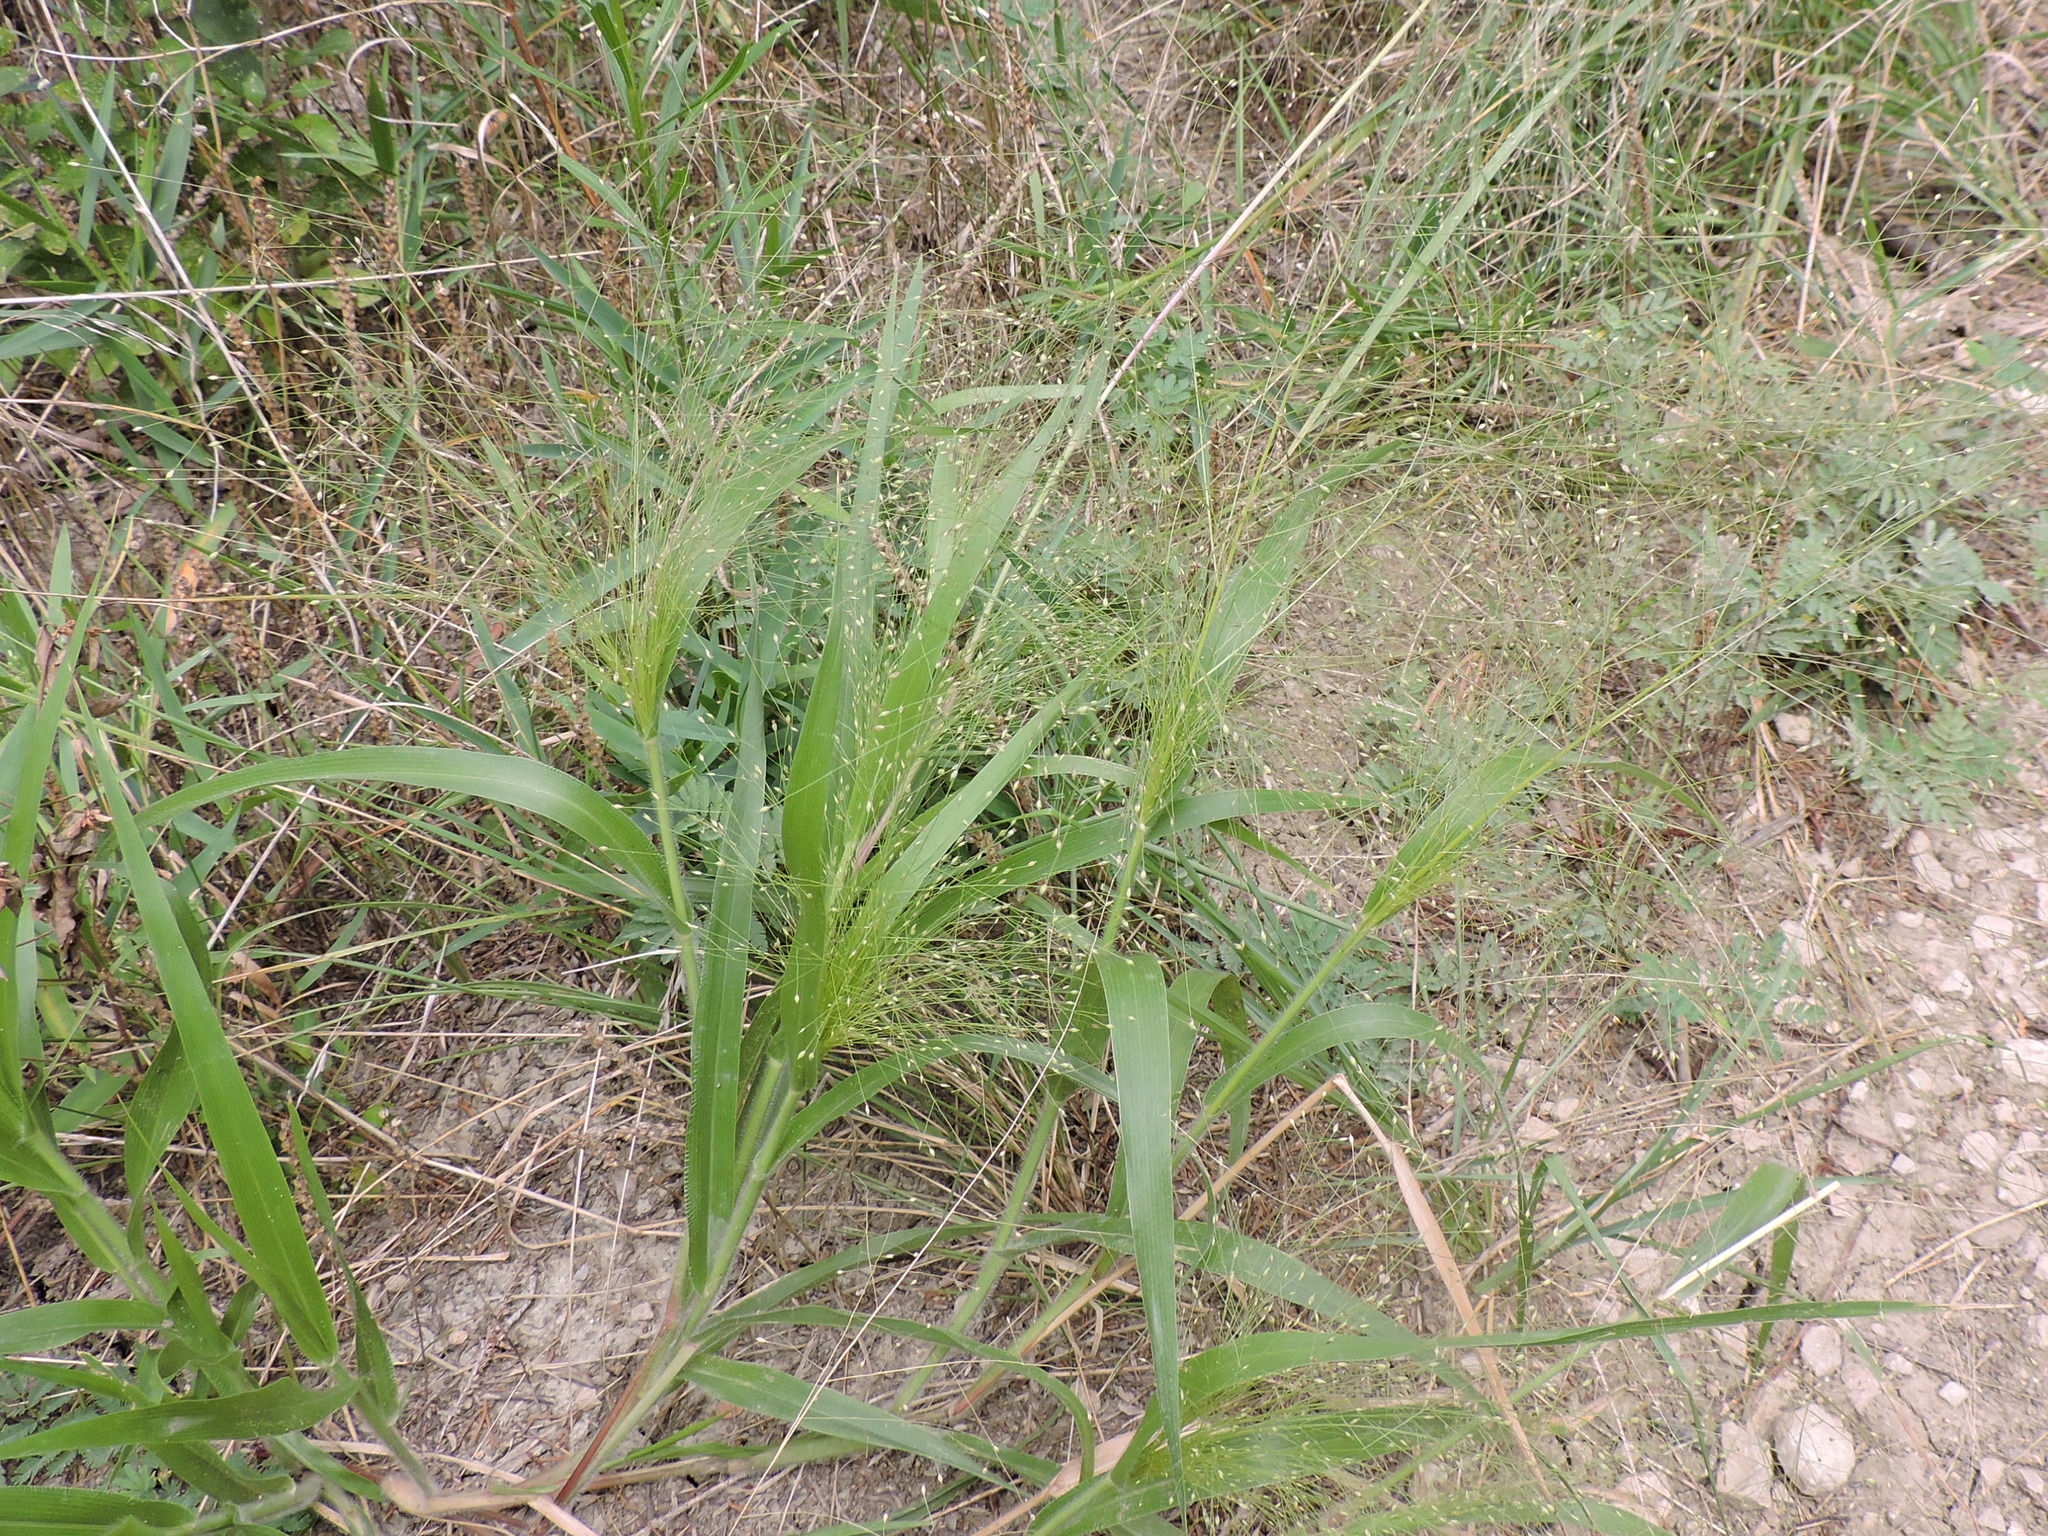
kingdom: Plantae
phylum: Tracheophyta
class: Liliopsida
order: Poales
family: Poaceae
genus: Panicum
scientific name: Panicum capillare
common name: Witch-grass
